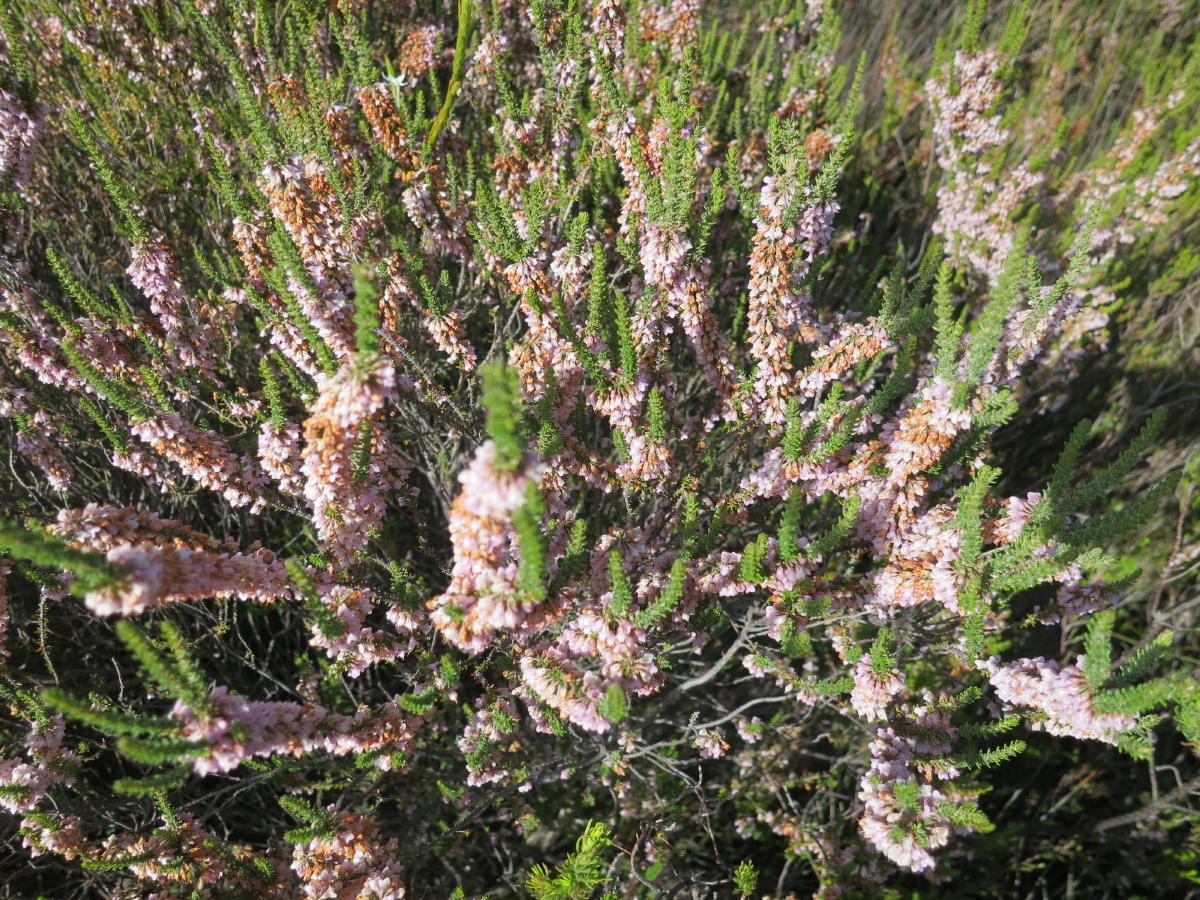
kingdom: Plantae
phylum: Tracheophyta
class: Magnoliopsida
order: Ericales
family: Ericaceae
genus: Erica
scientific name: Erica deflexa
